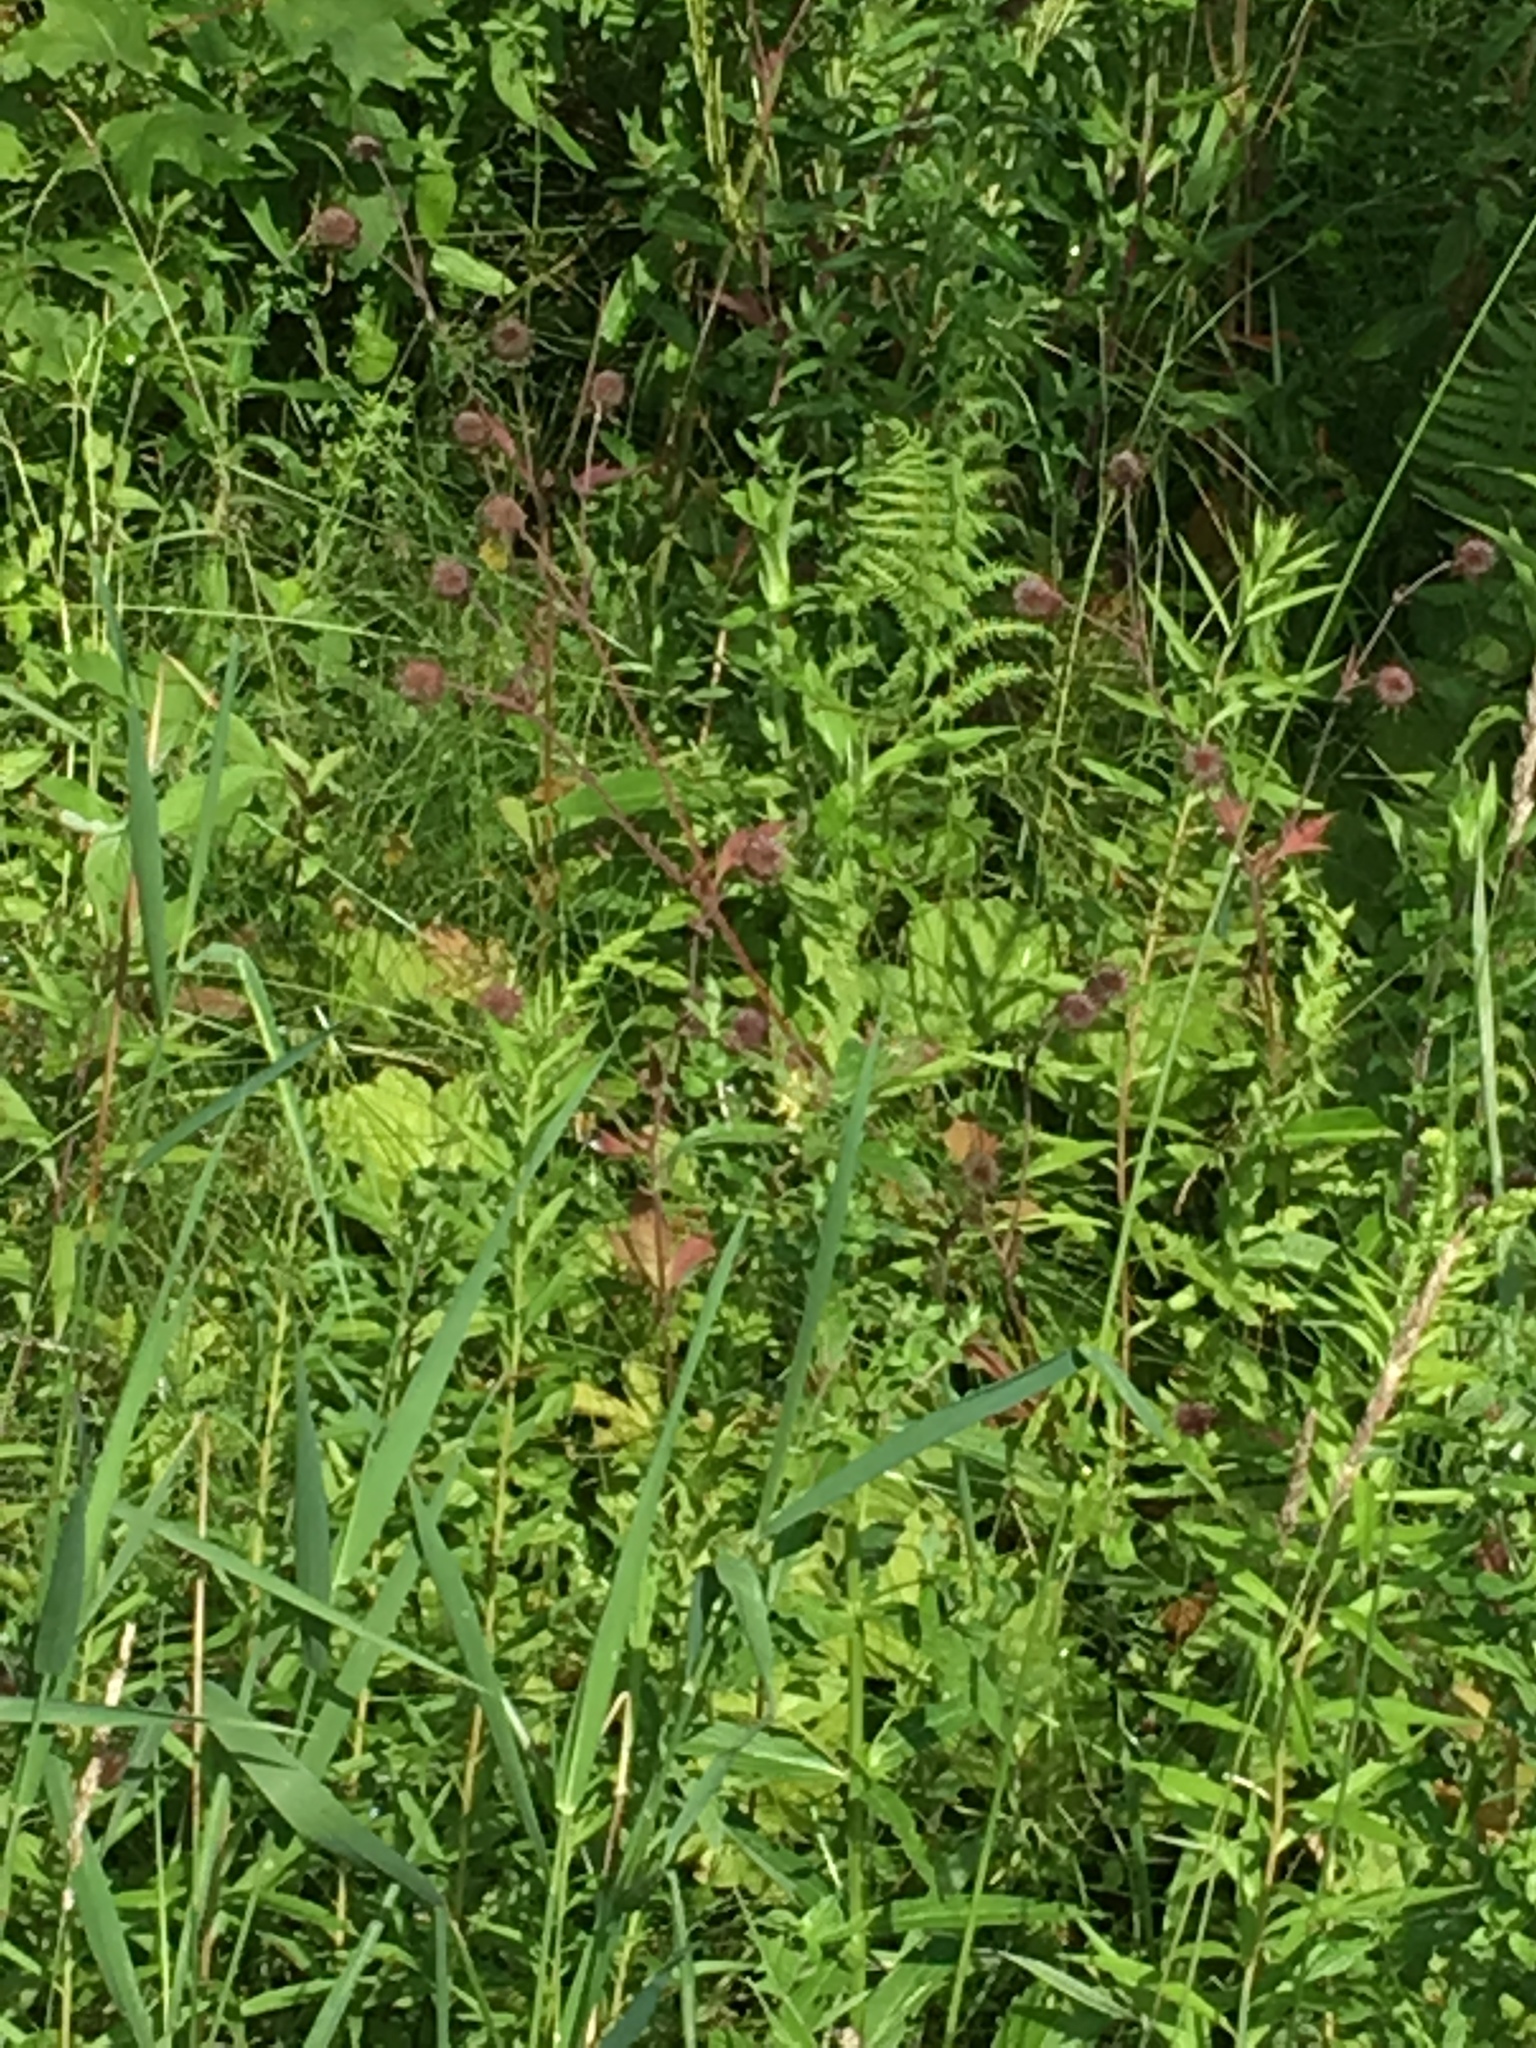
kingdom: Plantae
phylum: Tracheophyta
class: Magnoliopsida
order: Rosales
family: Rosaceae
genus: Geum
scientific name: Geum rivale
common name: Water avens
